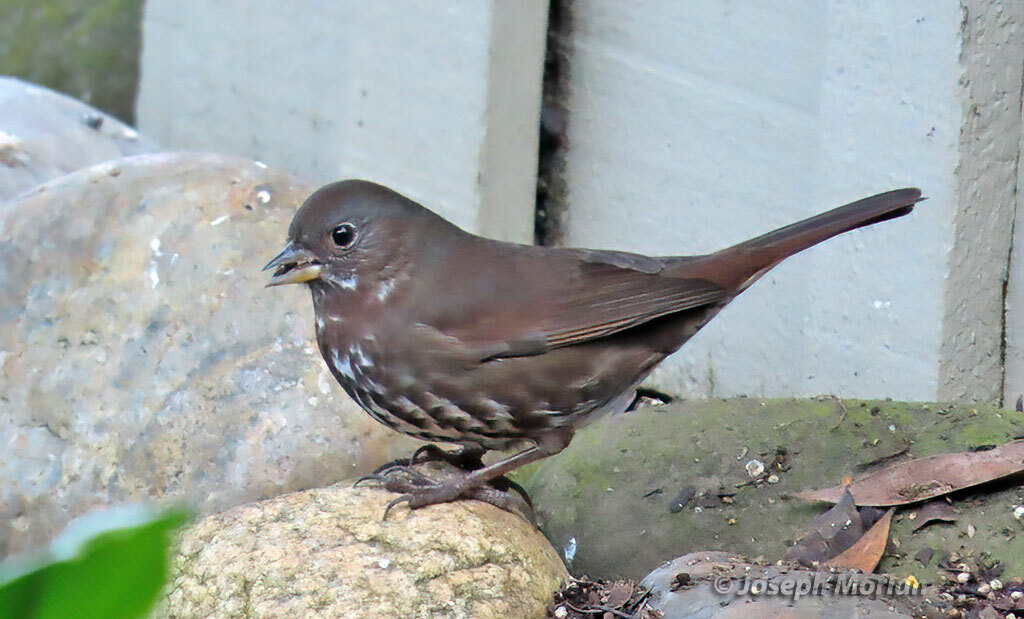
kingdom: Animalia
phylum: Chordata
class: Aves
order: Passeriformes
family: Passerellidae
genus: Passerella
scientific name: Passerella iliaca
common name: Fox sparrow
